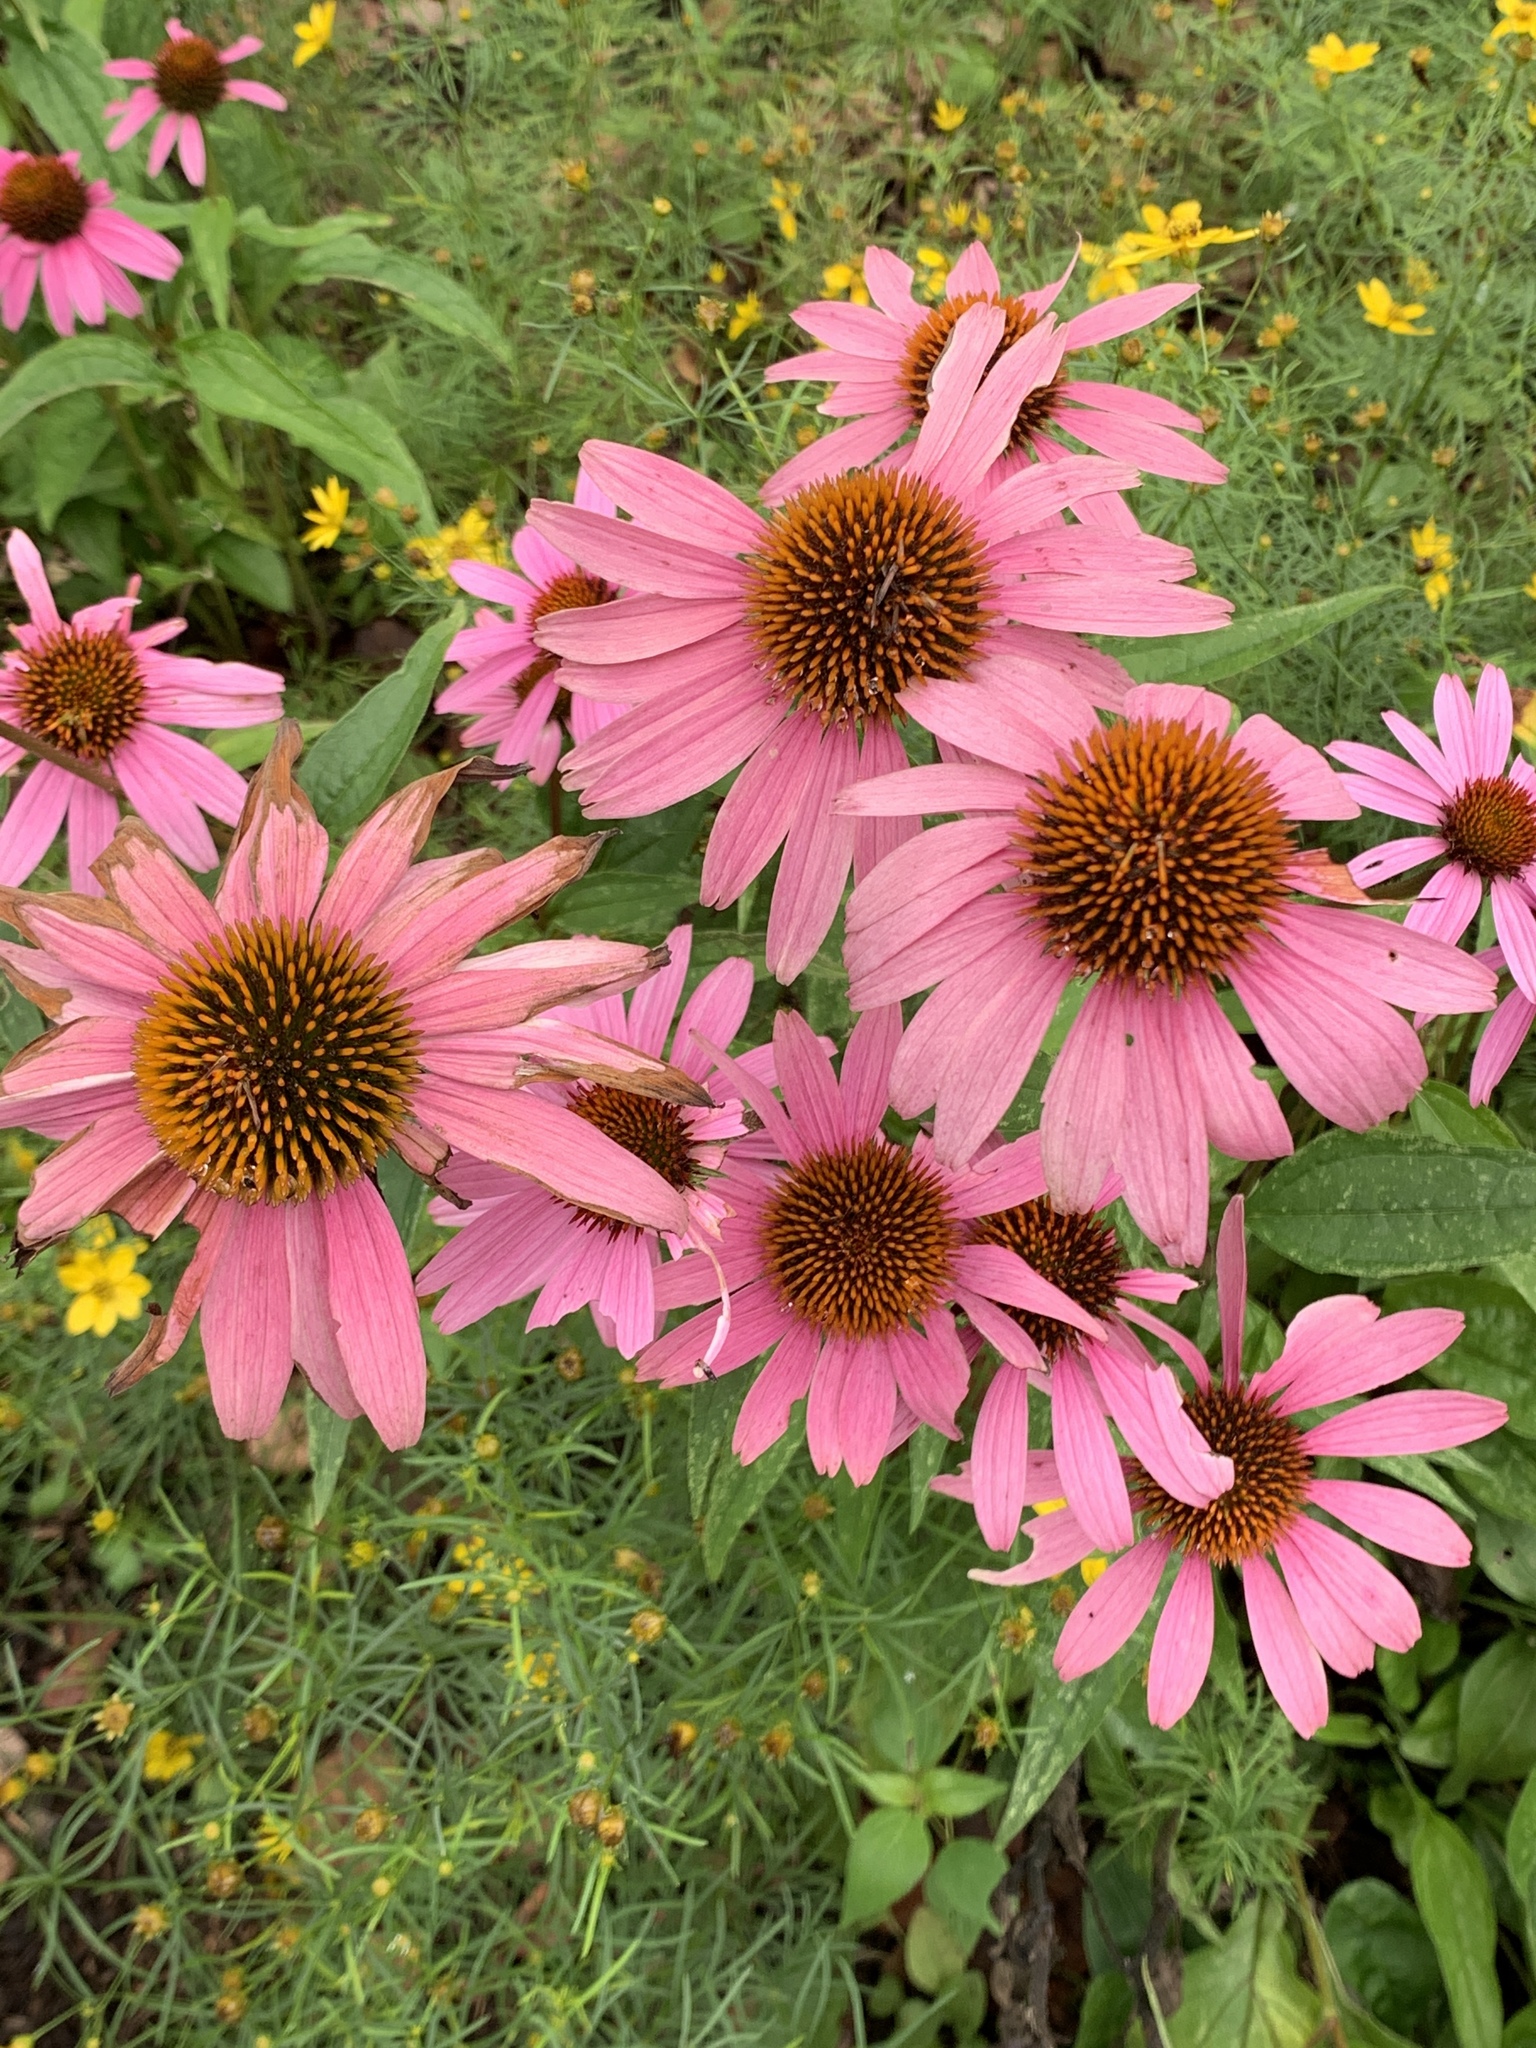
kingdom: Plantae
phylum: Tracheophyta
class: Magnoliopsida
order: Asterales
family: Asteraceae
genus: Echinacea
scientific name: Echinacea purpurea
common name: Broad-leaved purple coneflower
